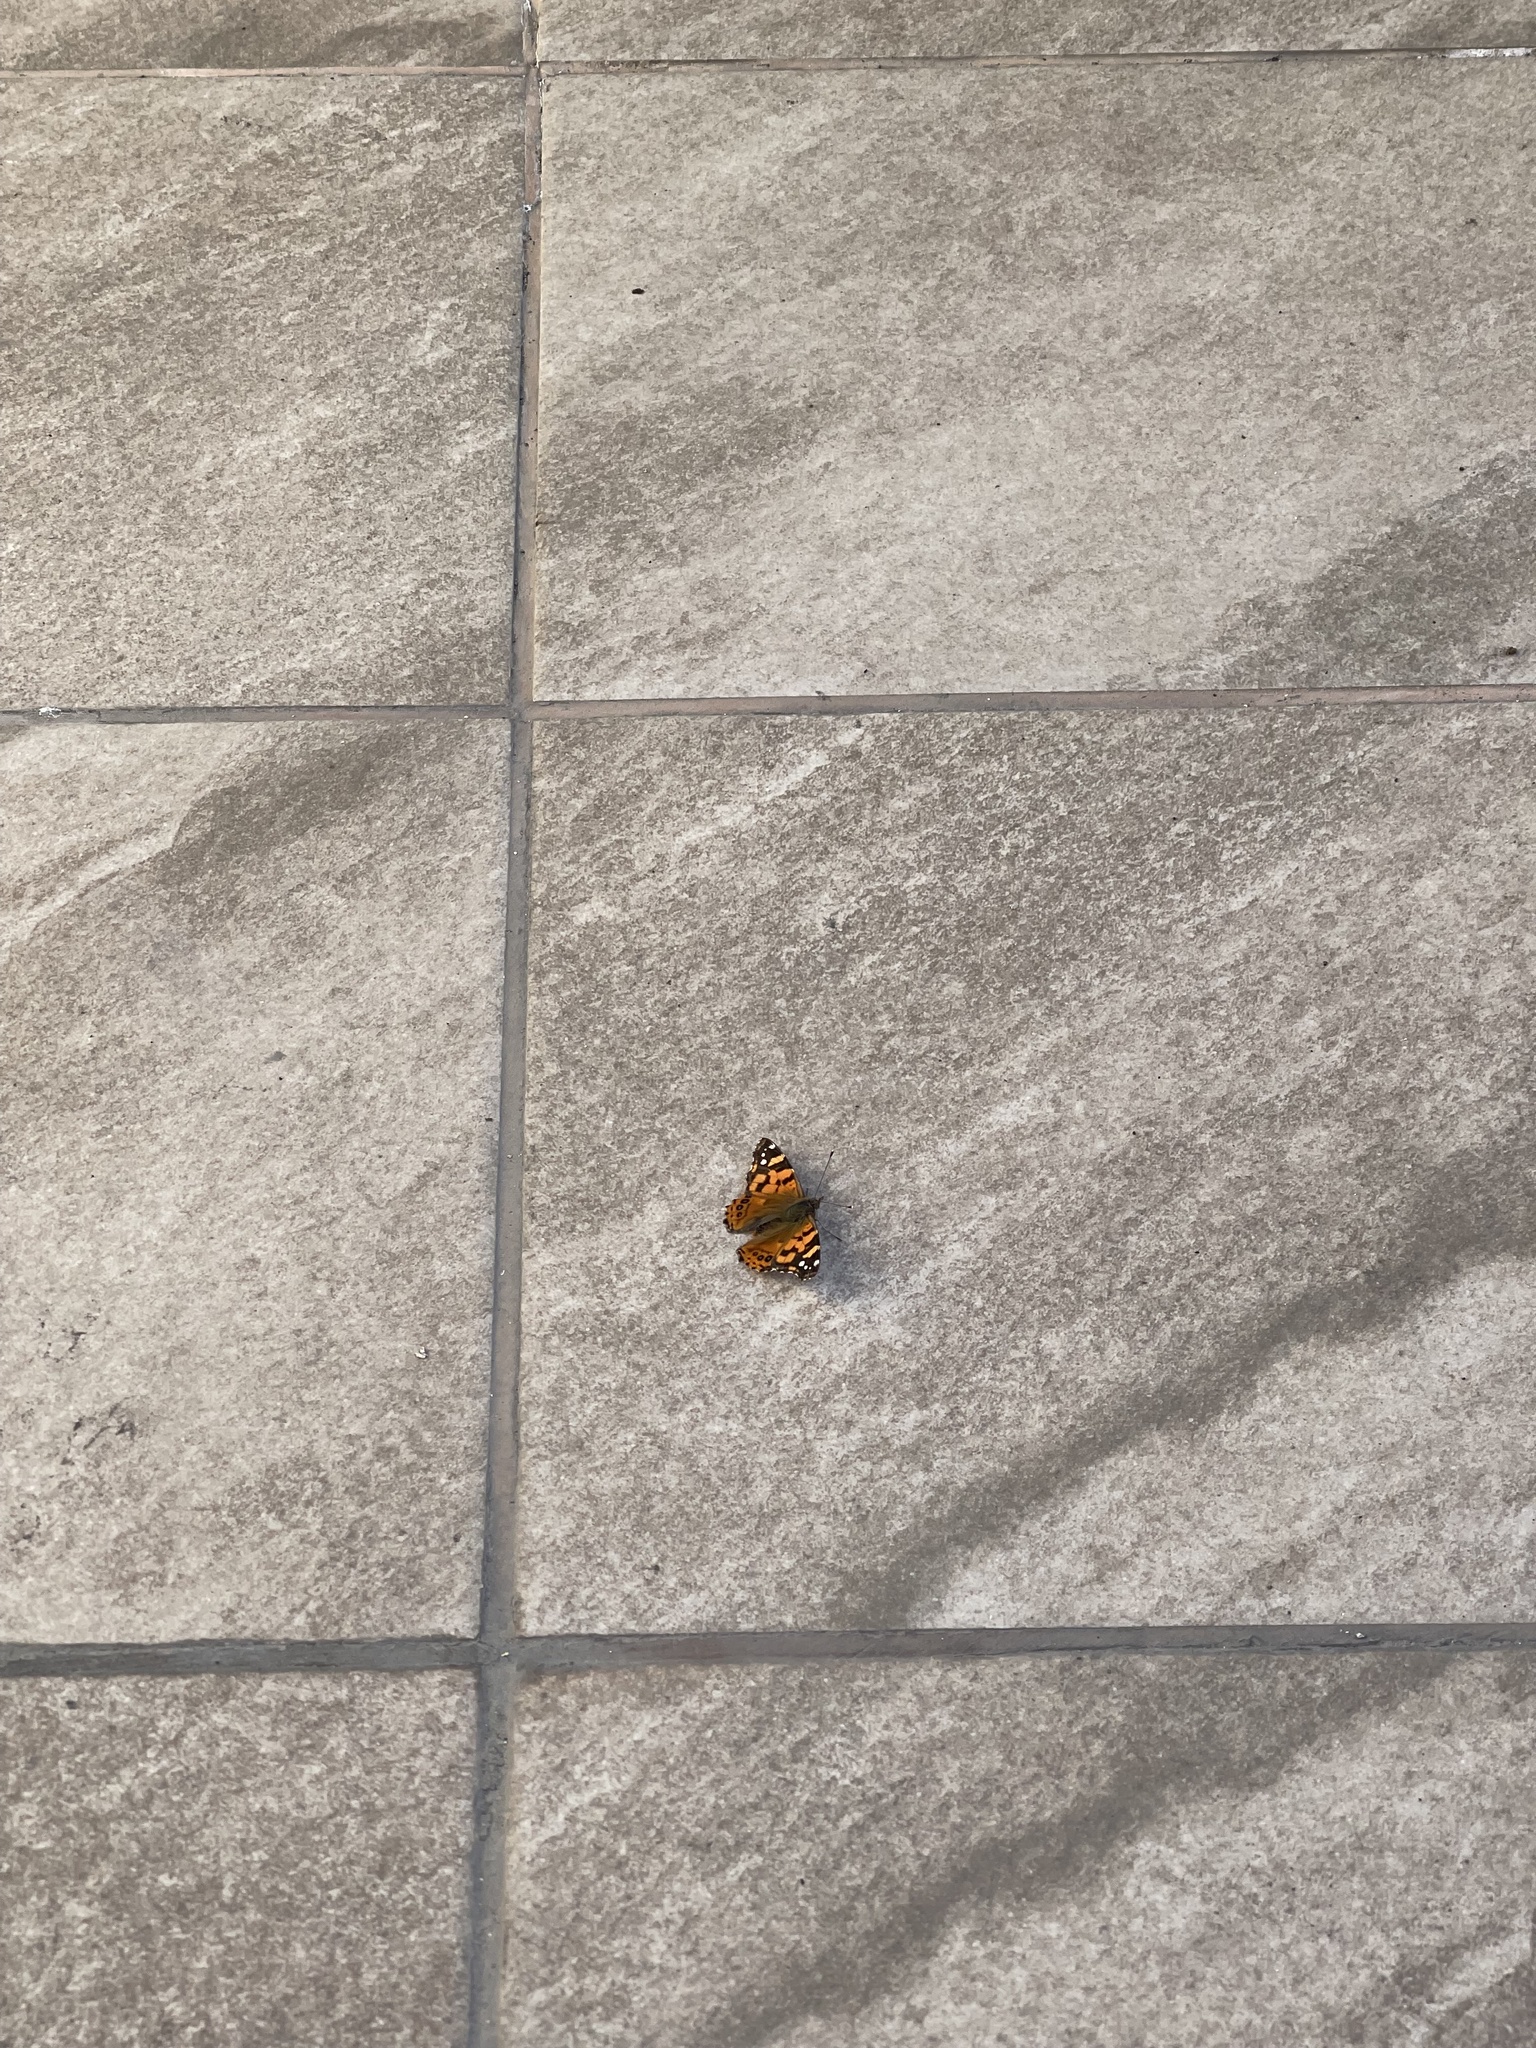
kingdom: Animalia
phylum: Arthropoda
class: Insecta
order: Lepidoptera
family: Nymphalidae
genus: Vanessa
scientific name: Vanessa carye
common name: Subtropical lady
